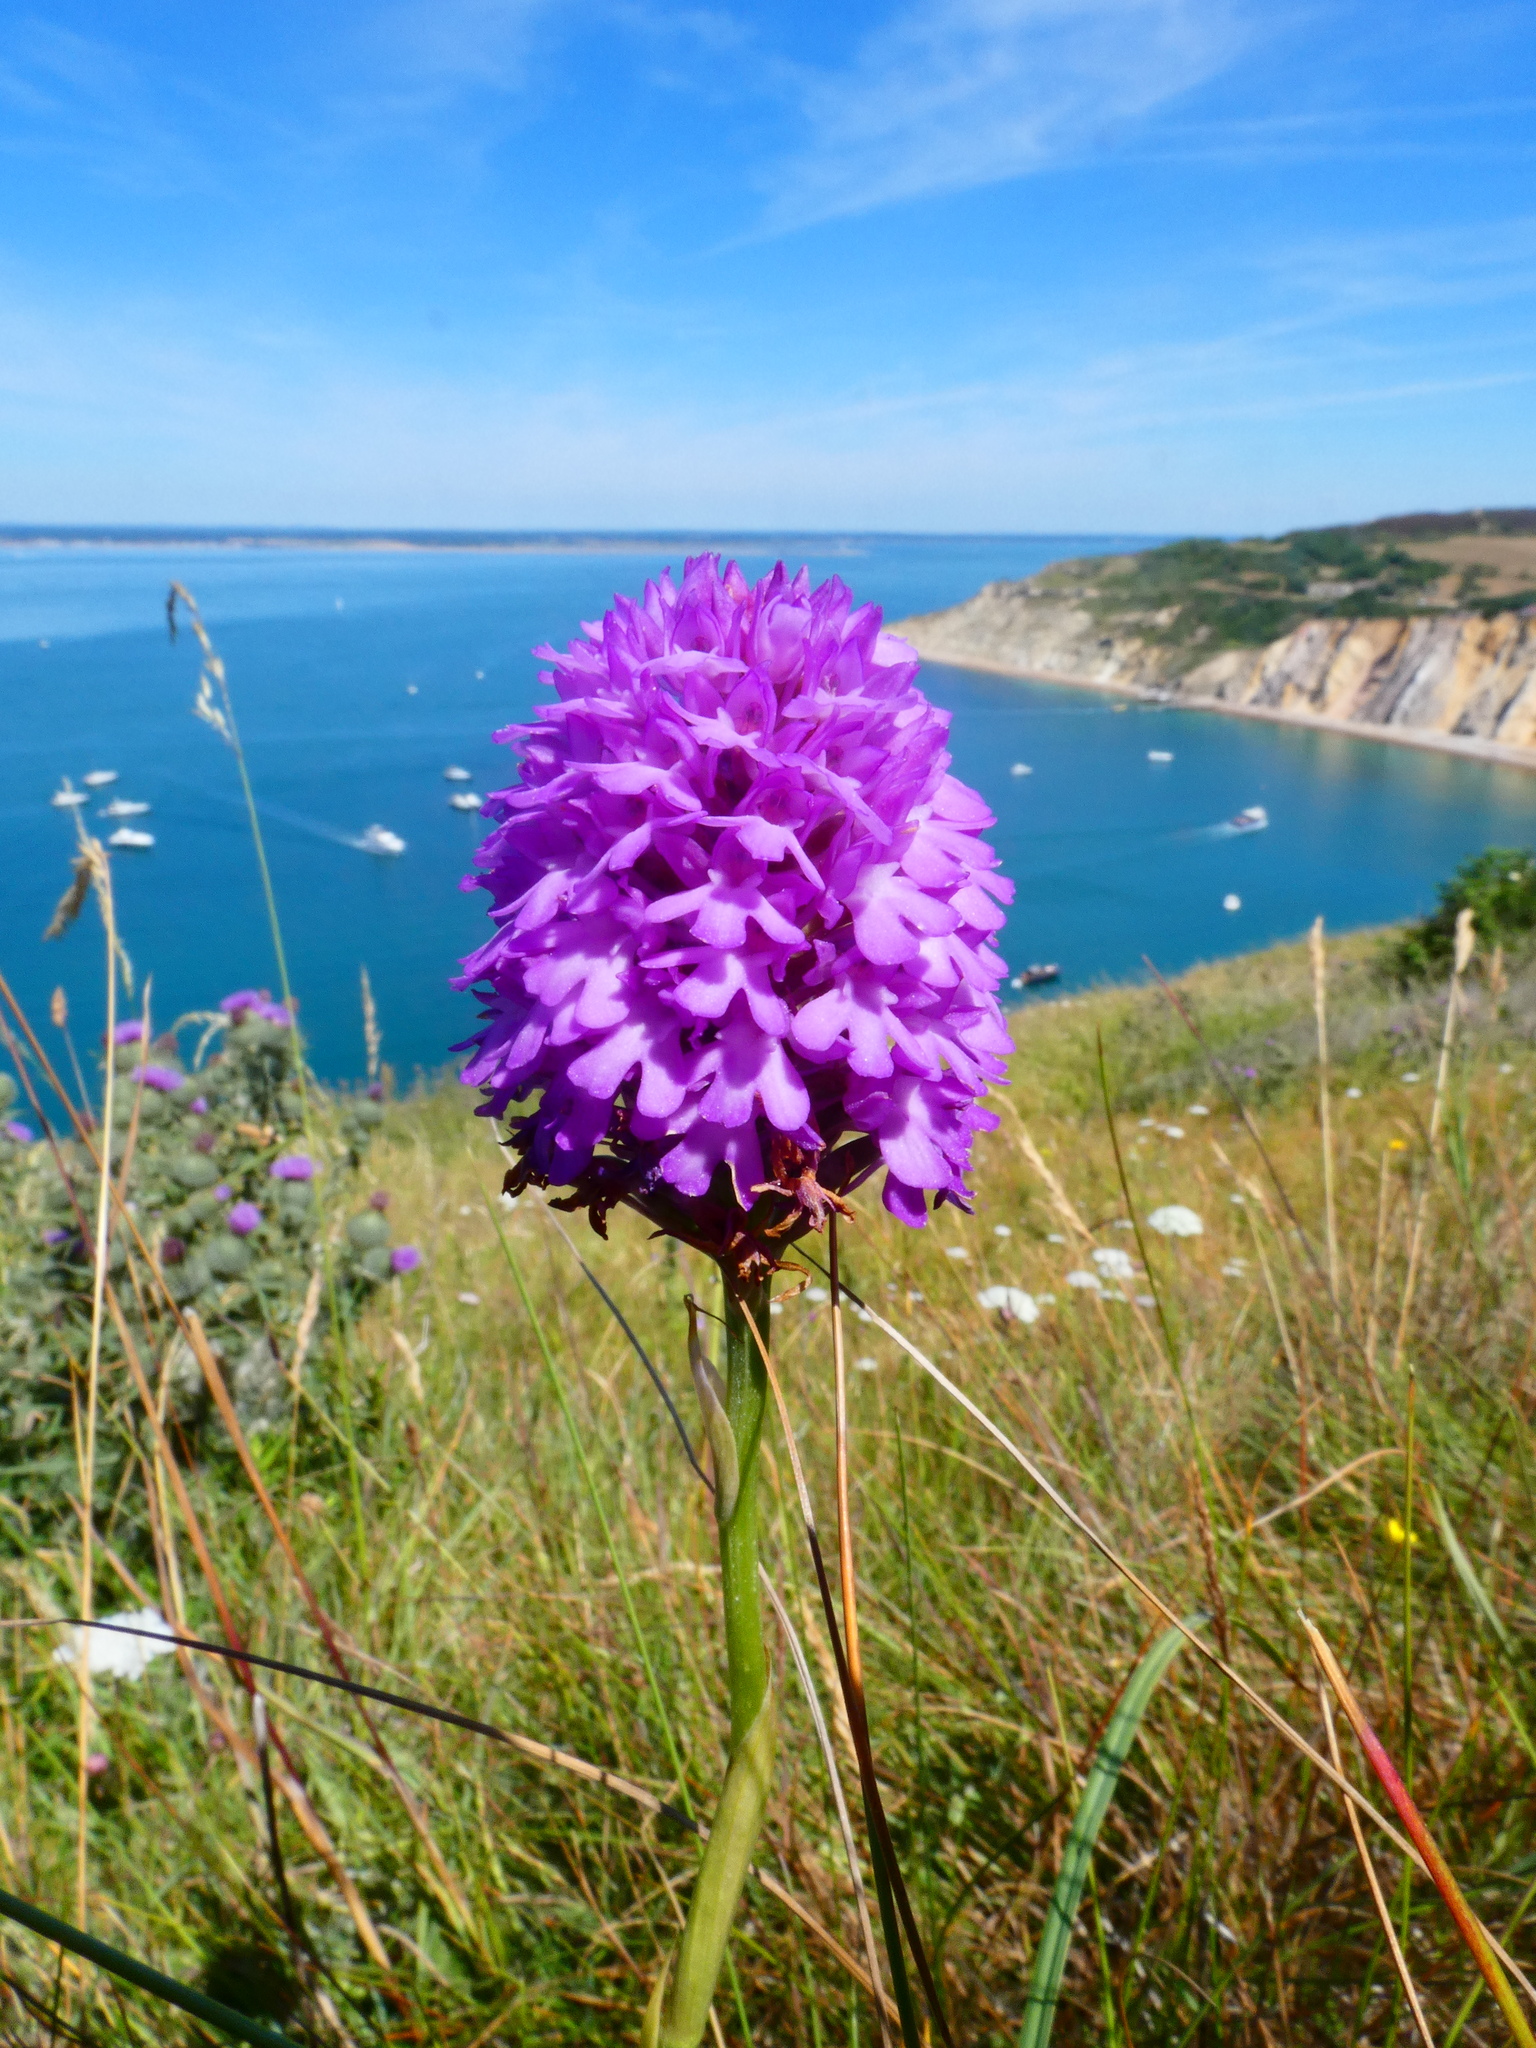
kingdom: Plantae
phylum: Tracheophyta
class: Liliopsida
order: Asparagales
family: Orchidaceae
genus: Anacamptis
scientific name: Anacamptis pyramidalis
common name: Pyramidal orchid
